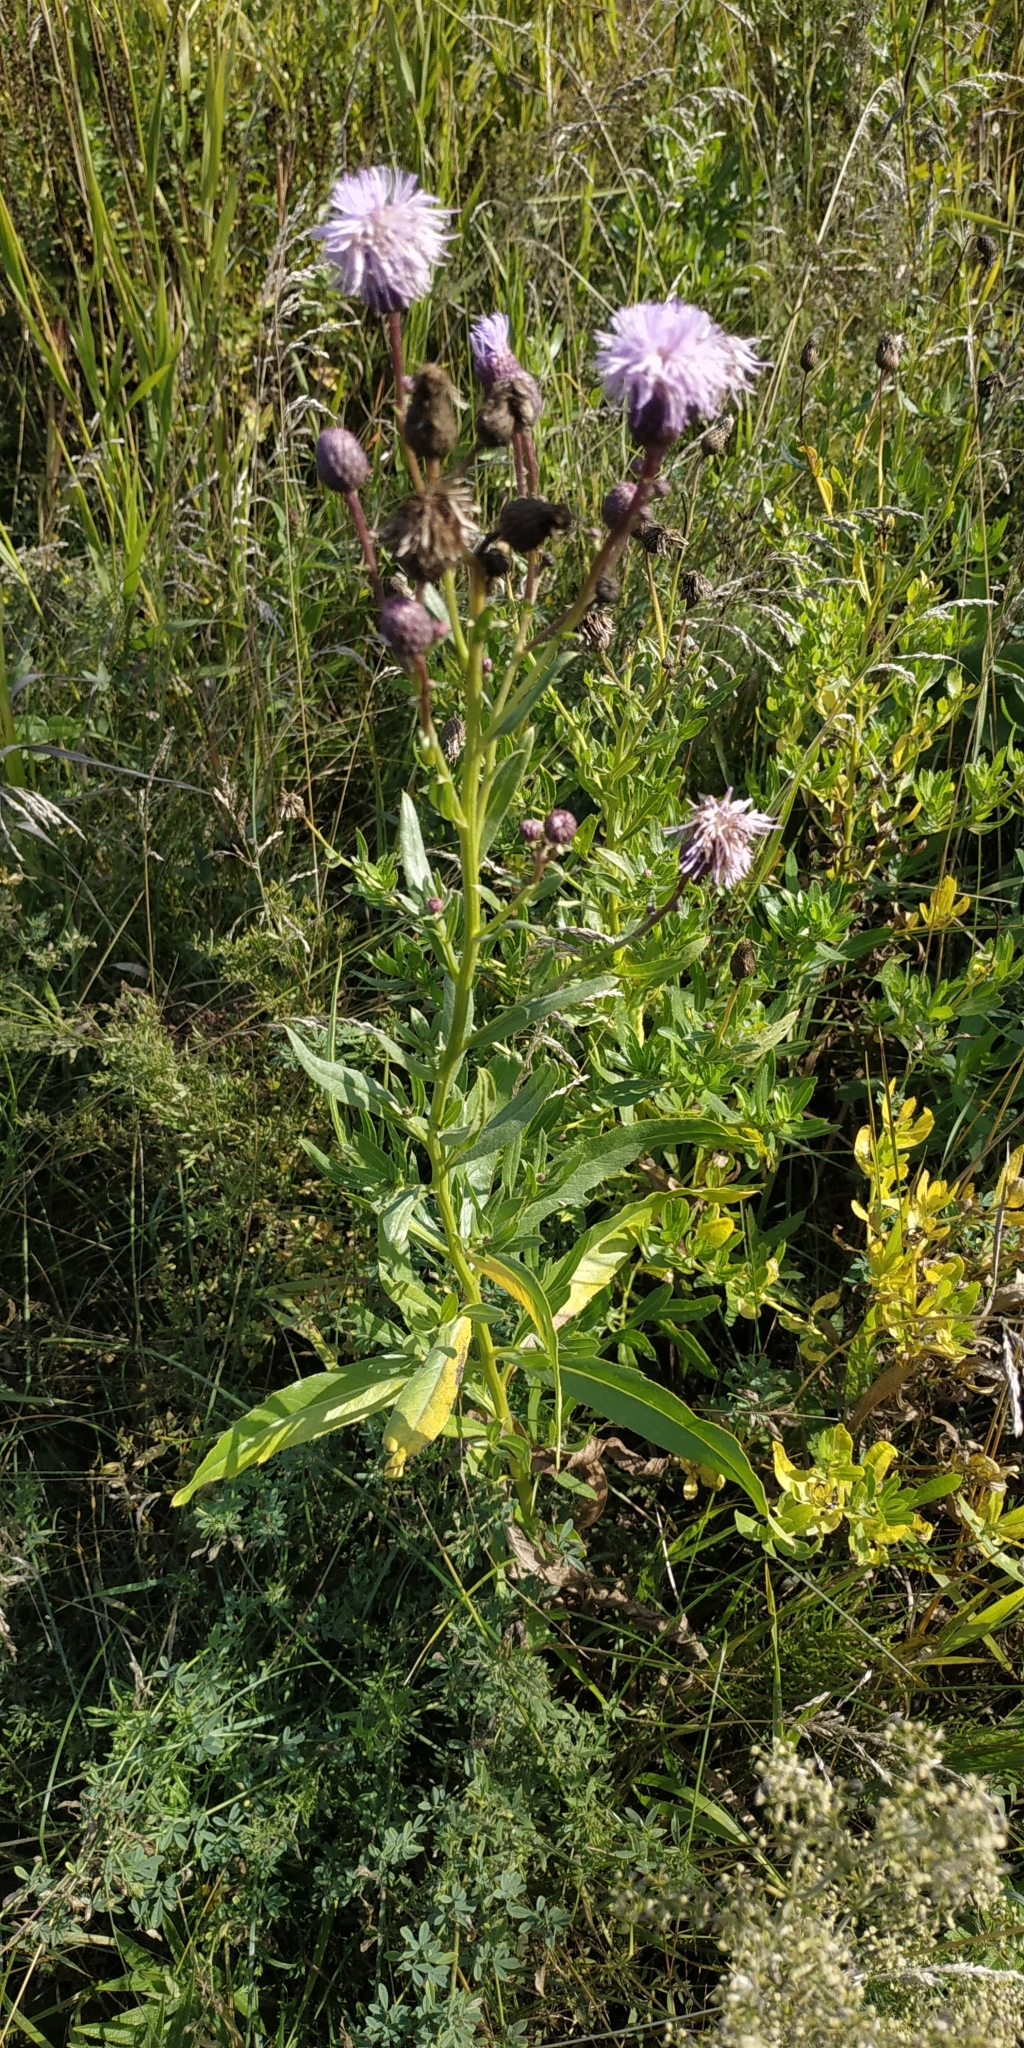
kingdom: Plantae
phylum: Tracheophyta
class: Magnoliopsida
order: Asterales
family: Asteraceae
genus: Cirsium
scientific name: Cirsium arvense
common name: Creeping thistle
